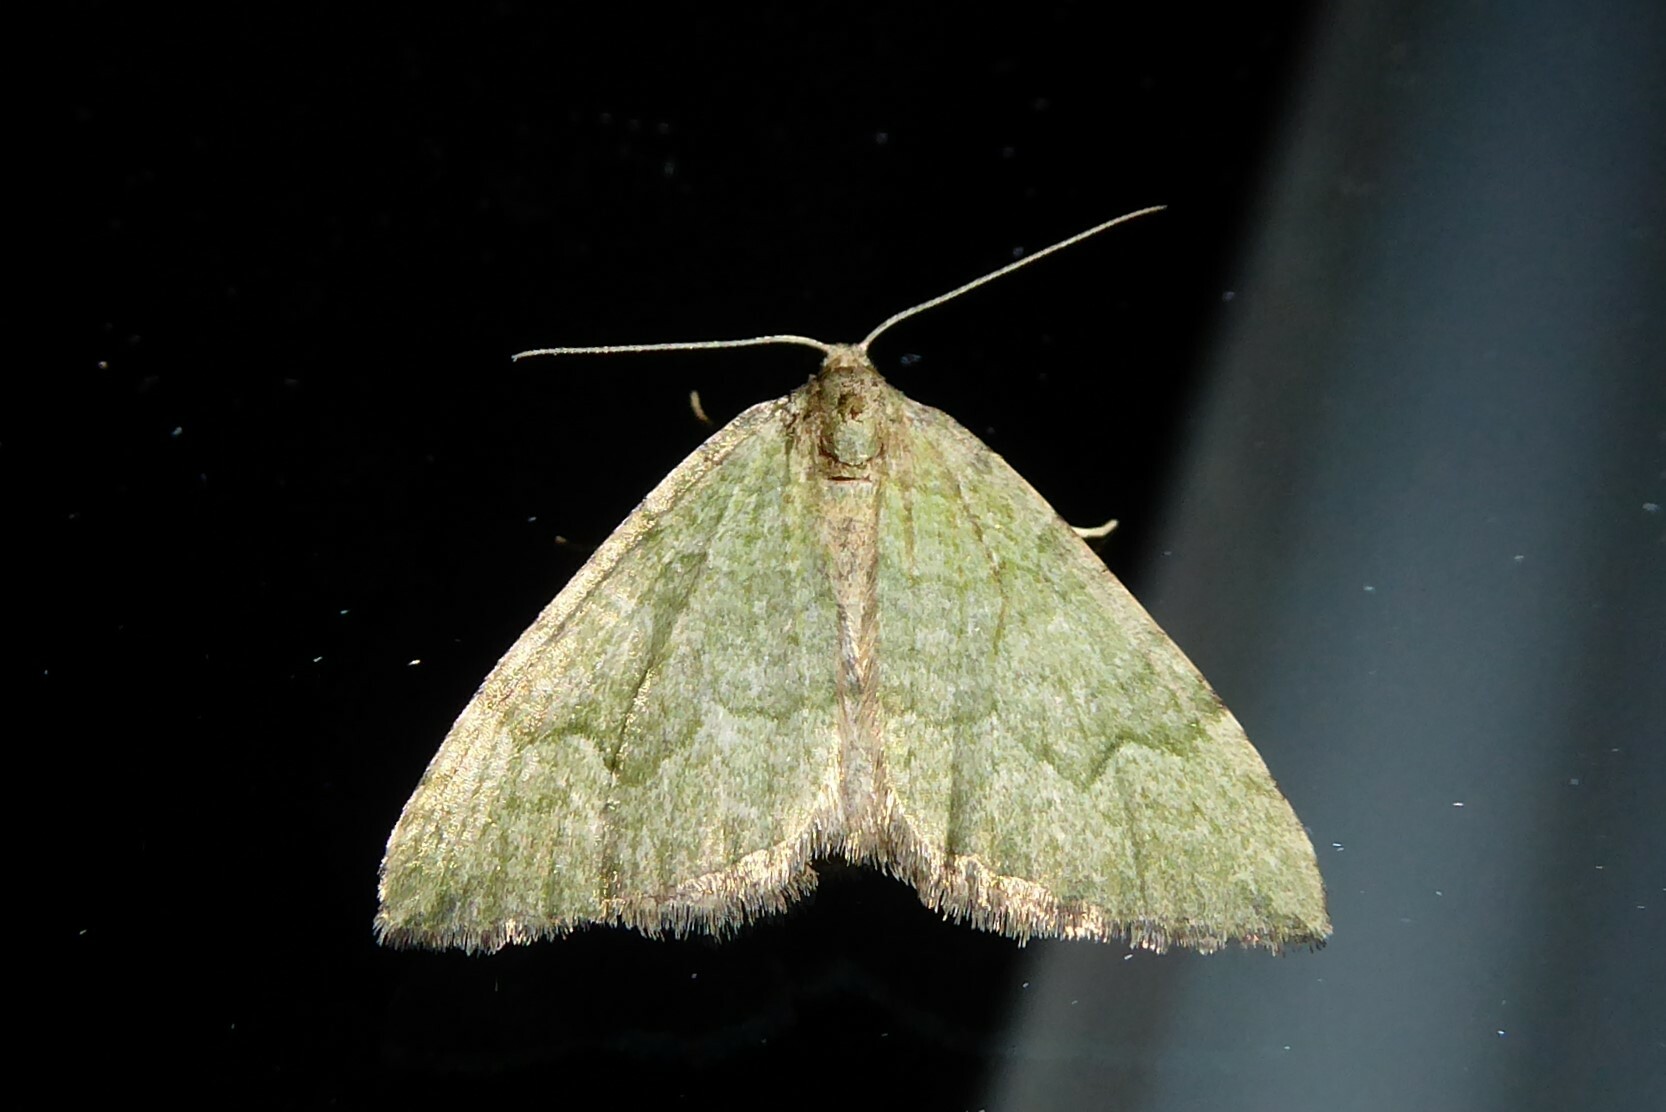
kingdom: Animalia
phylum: Arthropoda
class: Insecta
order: Lepidoptera
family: Geometridae
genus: Epyaxa
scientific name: Epyaxa rosearia
